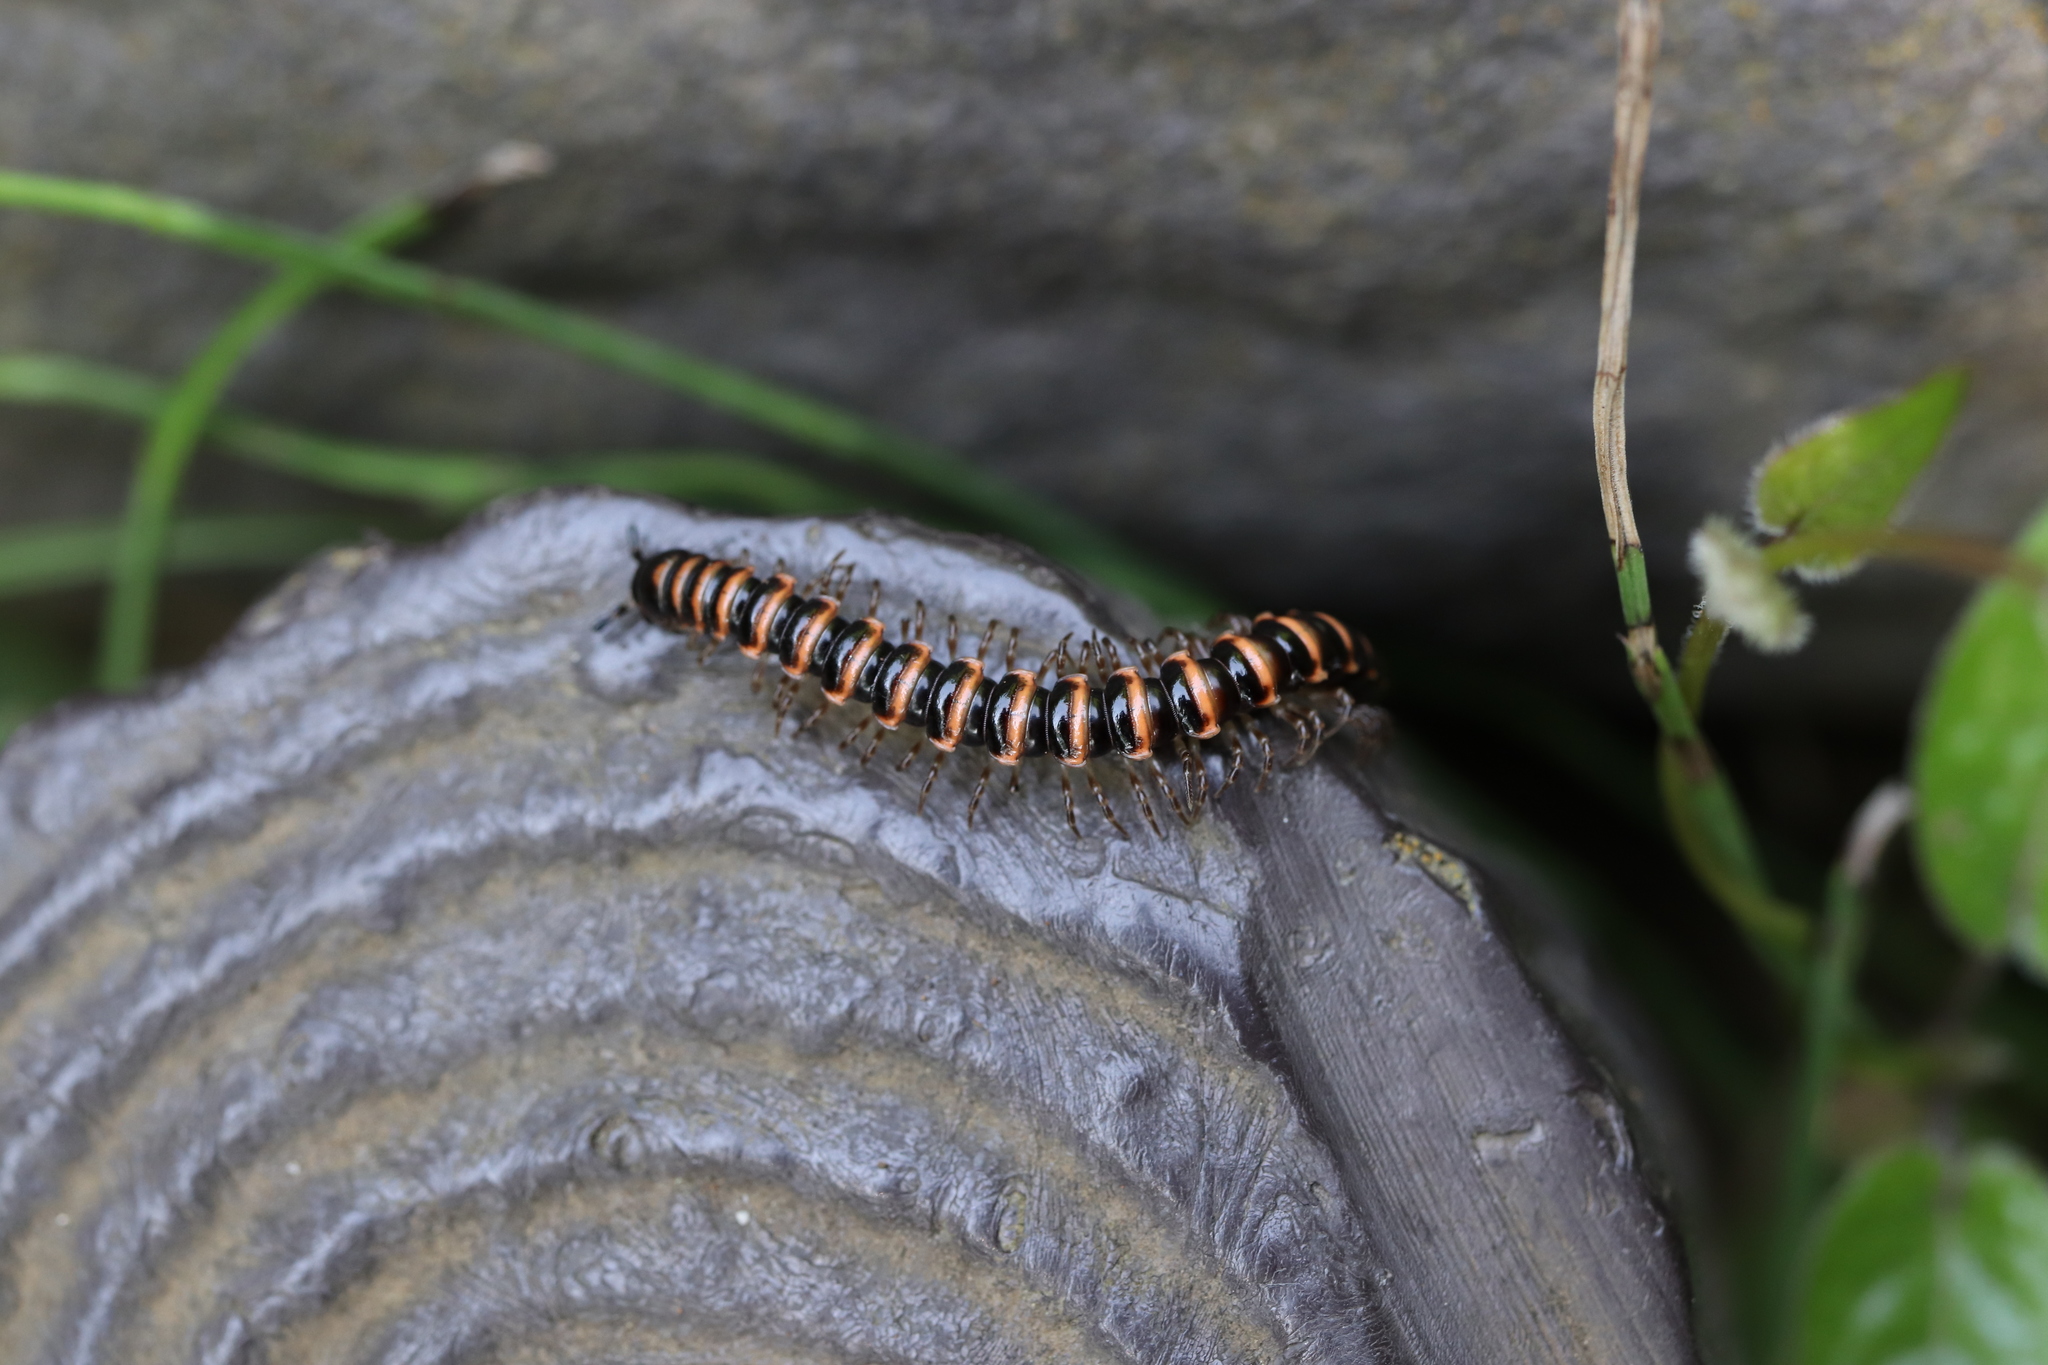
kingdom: Animalia
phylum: Arthropoda
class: Diplopoda
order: Polydesmida
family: Paradoxosomatidae
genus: Nedyopus
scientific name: Nedyopus patrioticus
